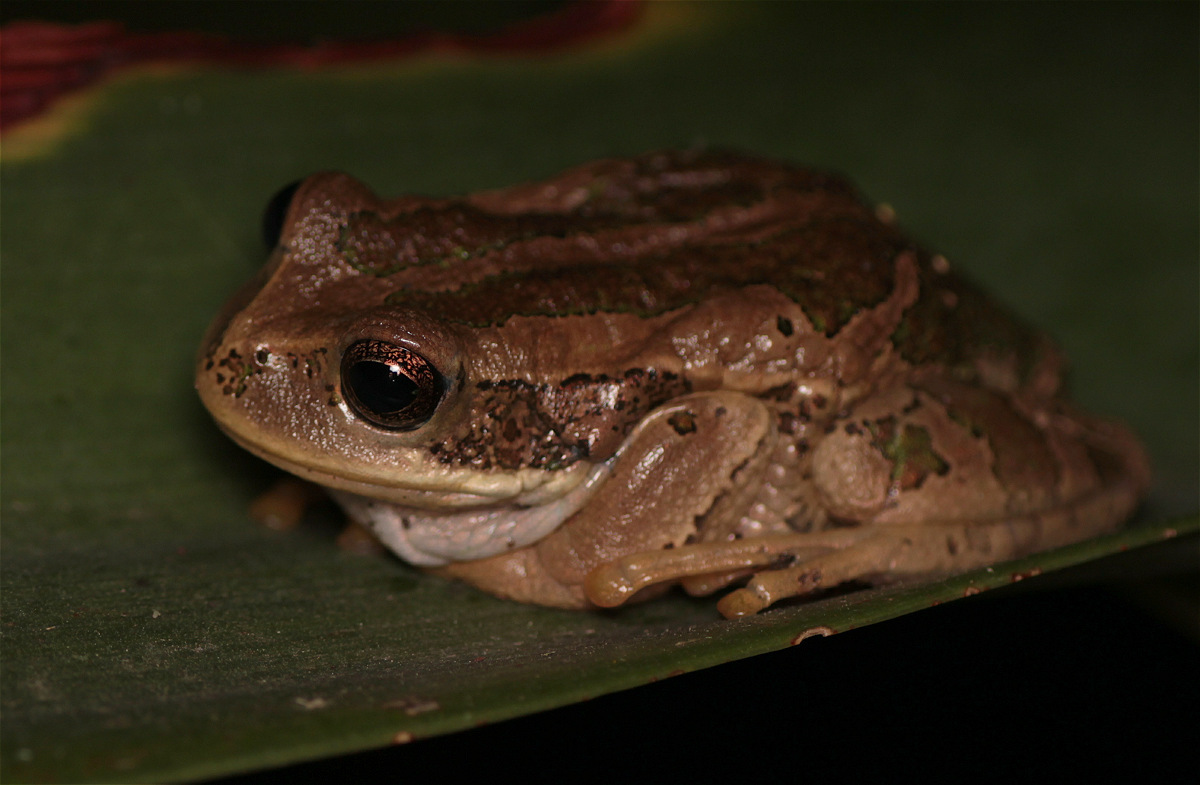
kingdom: Animalia
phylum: Chordata
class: Amphibia
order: Anura
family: Hemiphractidae
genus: Gastrotheca
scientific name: Gastrotheca cuencana
